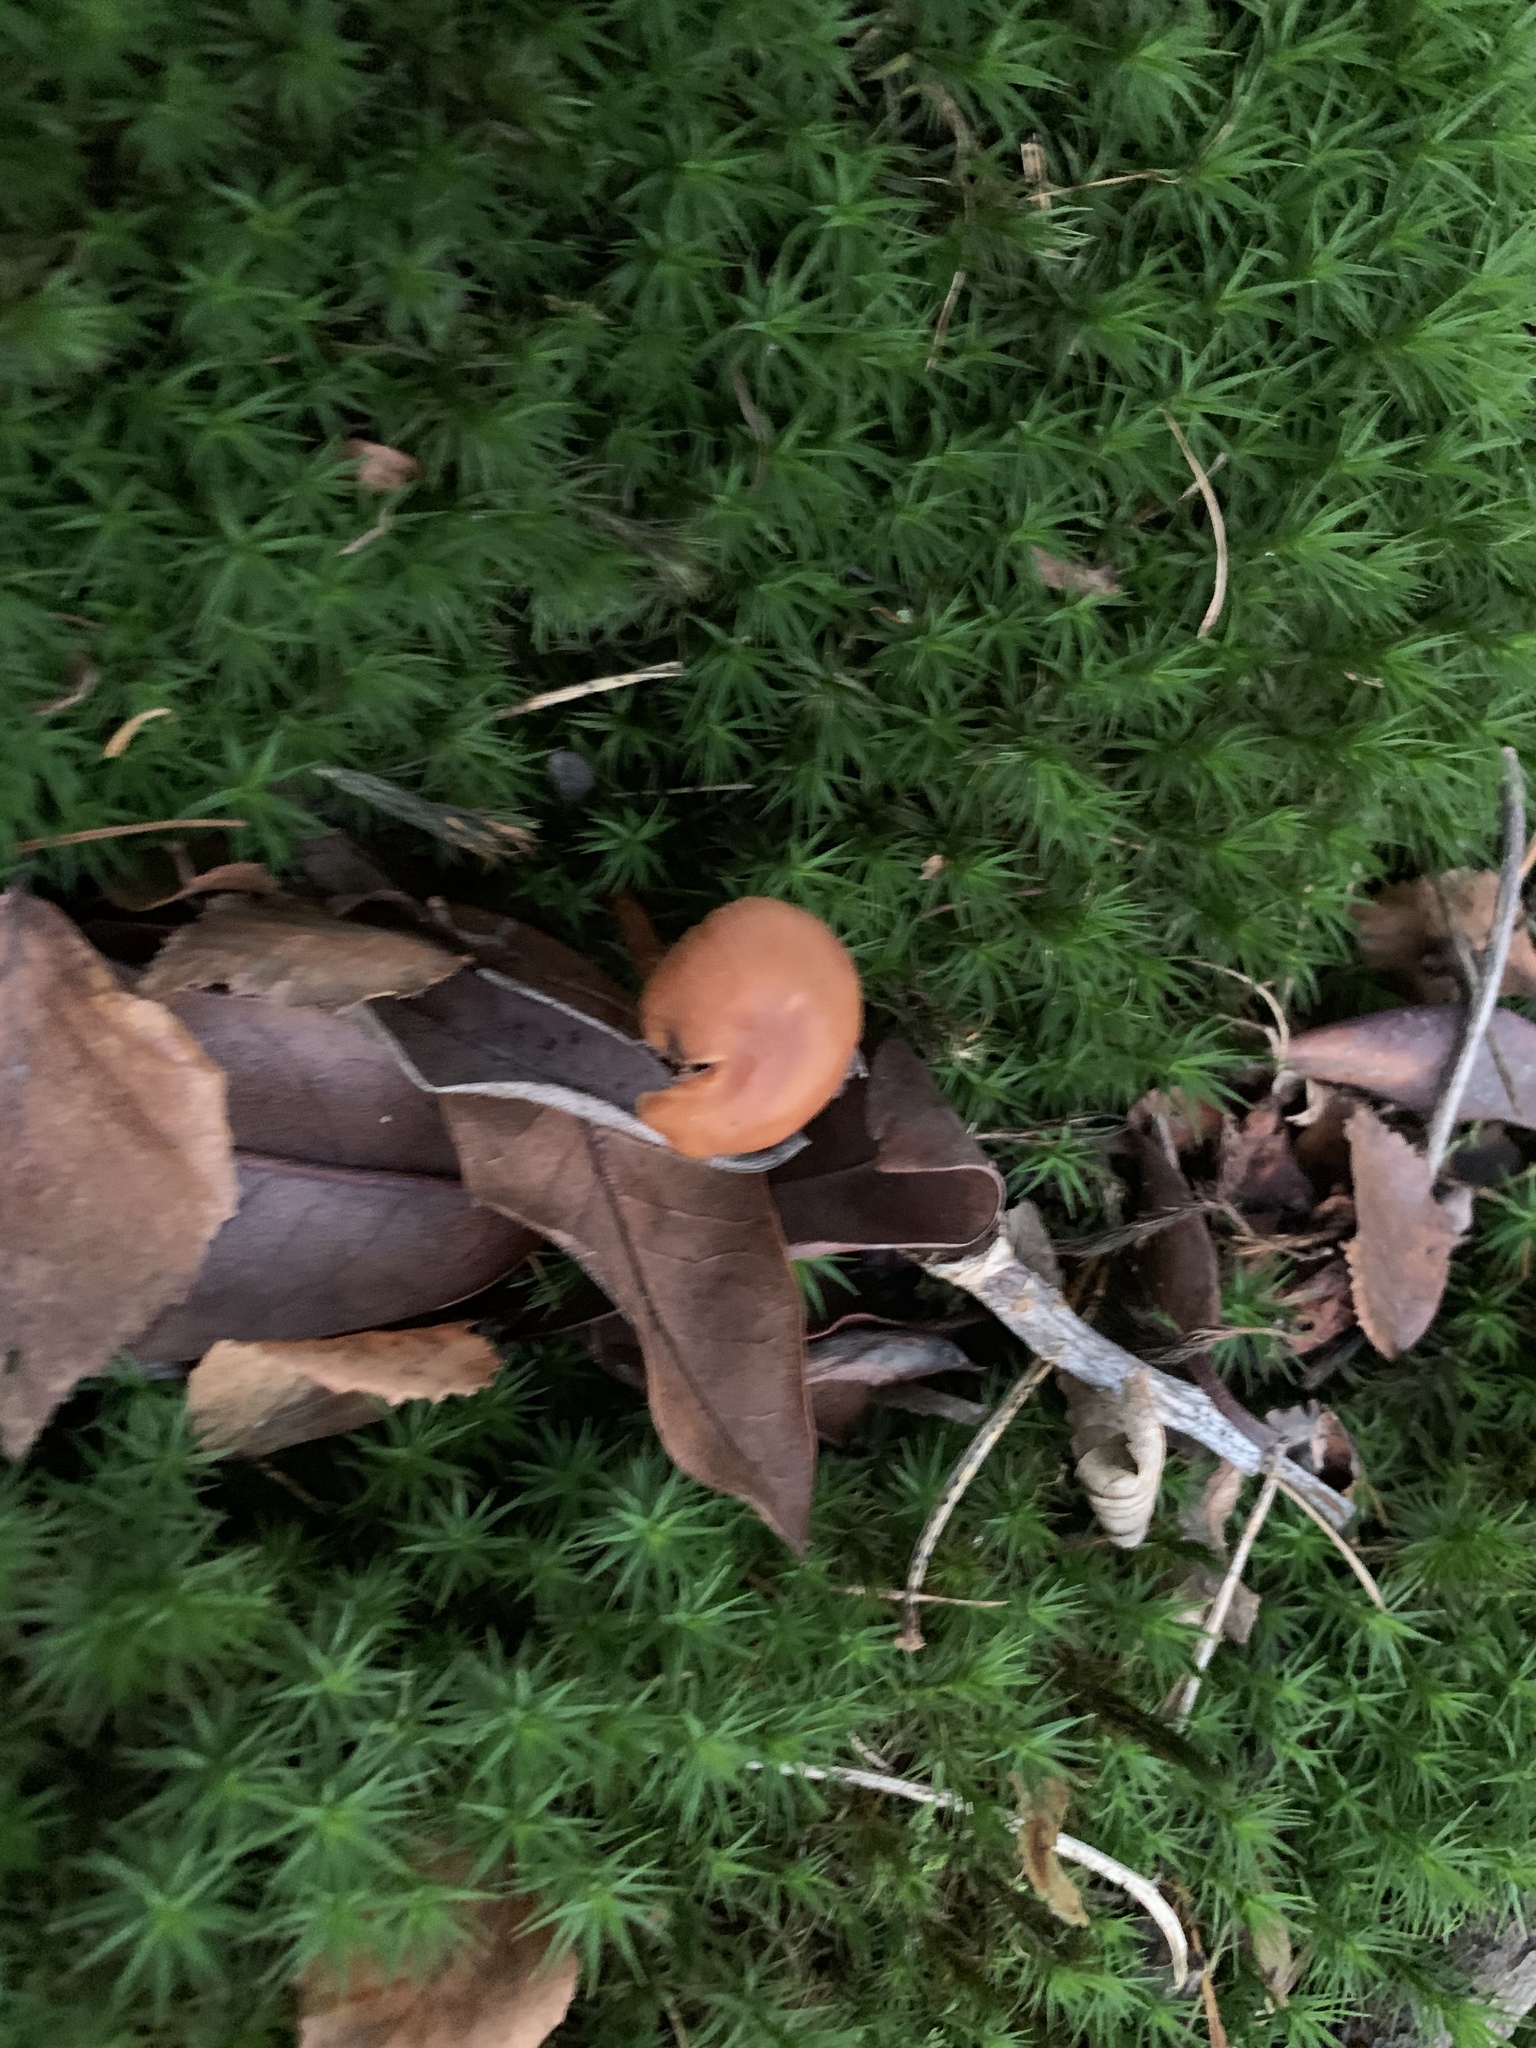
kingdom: Fungi
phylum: Basidiomycota
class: Agaricomycetes
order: Agaricales
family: Hydnangiaceae
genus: Laccaria
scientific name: Laccaria laccata
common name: Deceiver
